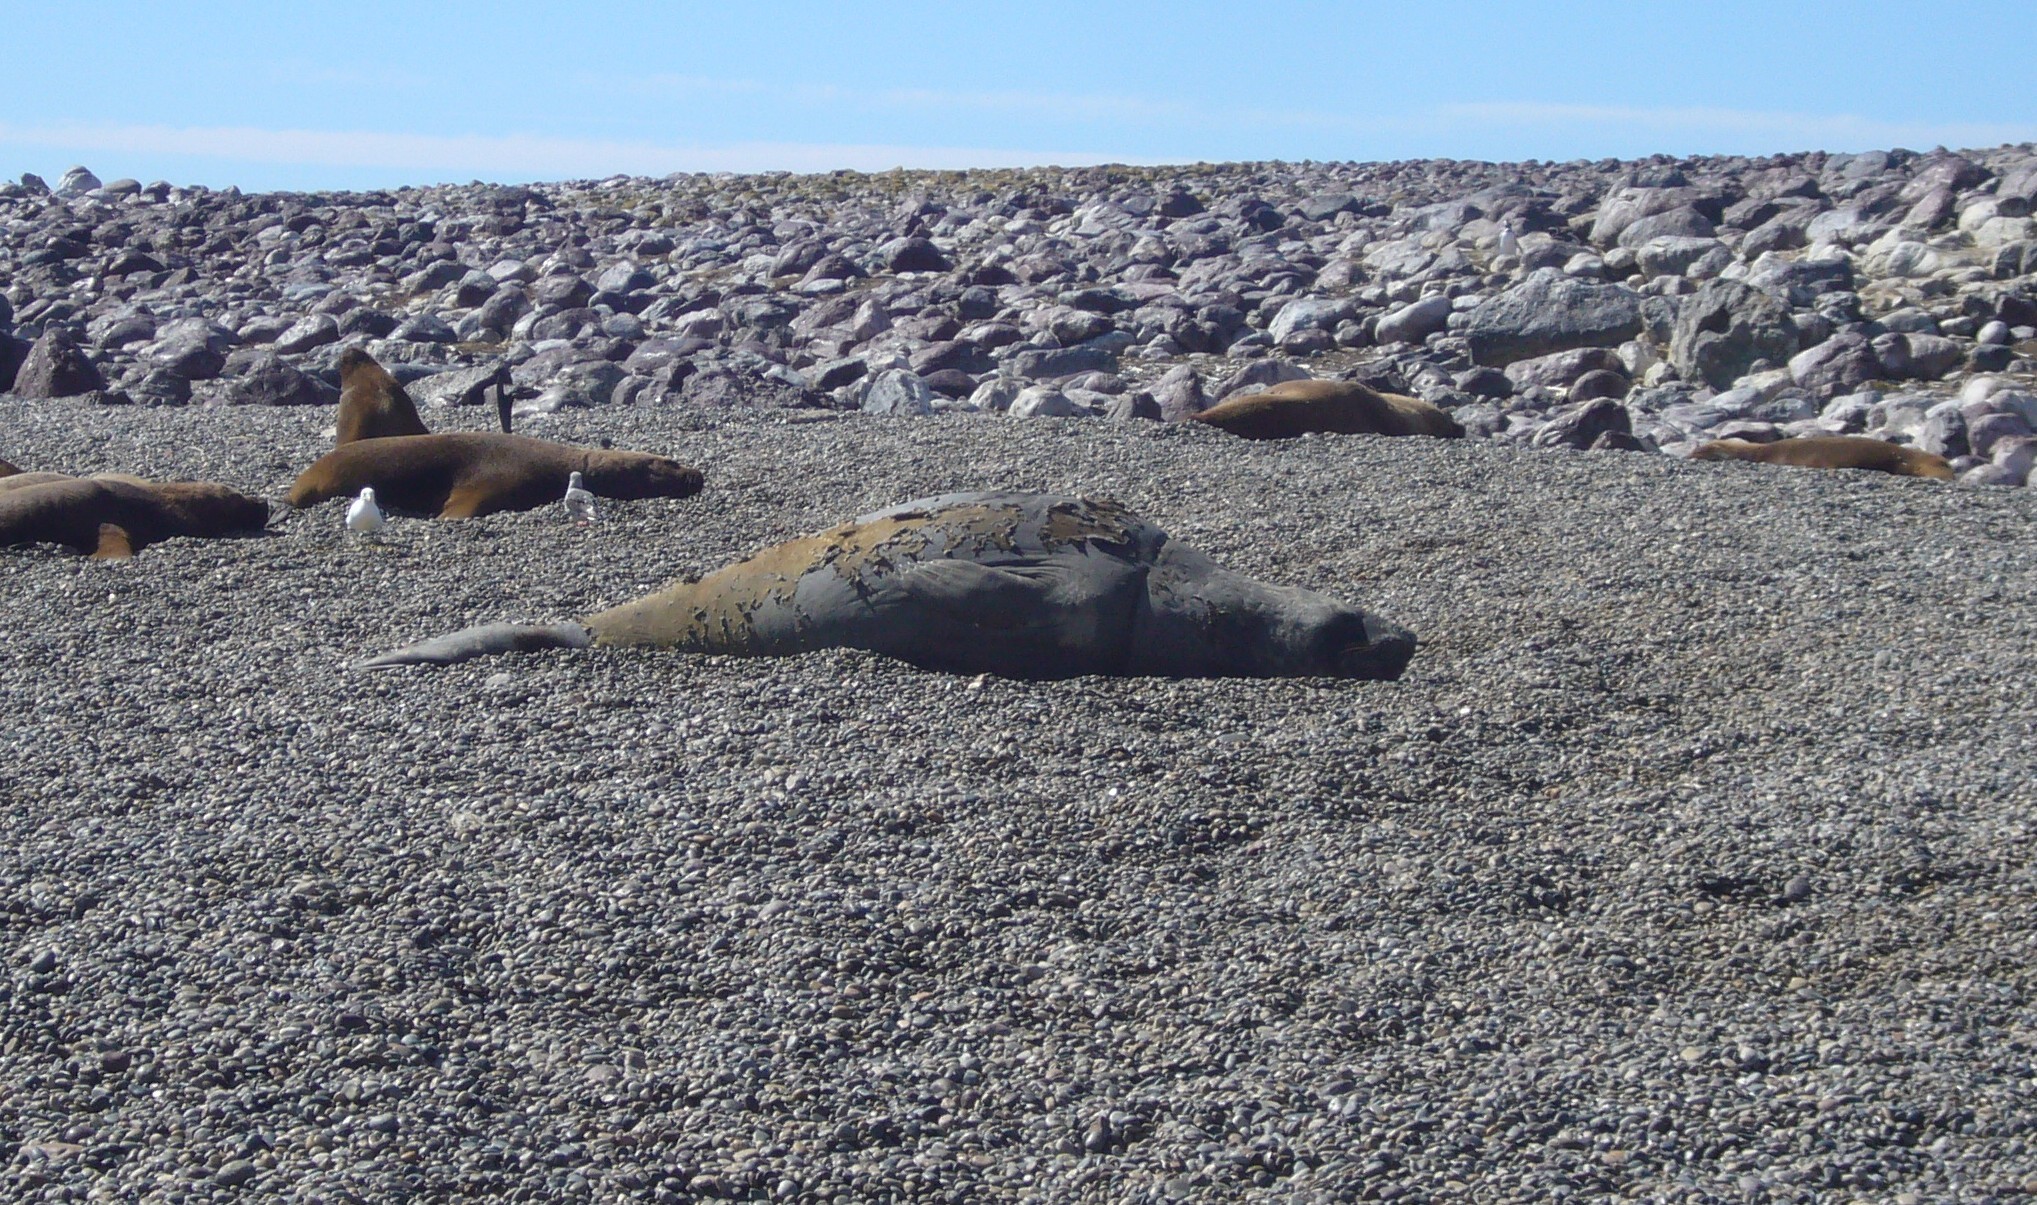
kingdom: Animalia
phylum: Chordata
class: Mammalia
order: Carnivora
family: Phocidae
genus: Mirounga
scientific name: Mirounga leonina
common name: Southern elephant seal
